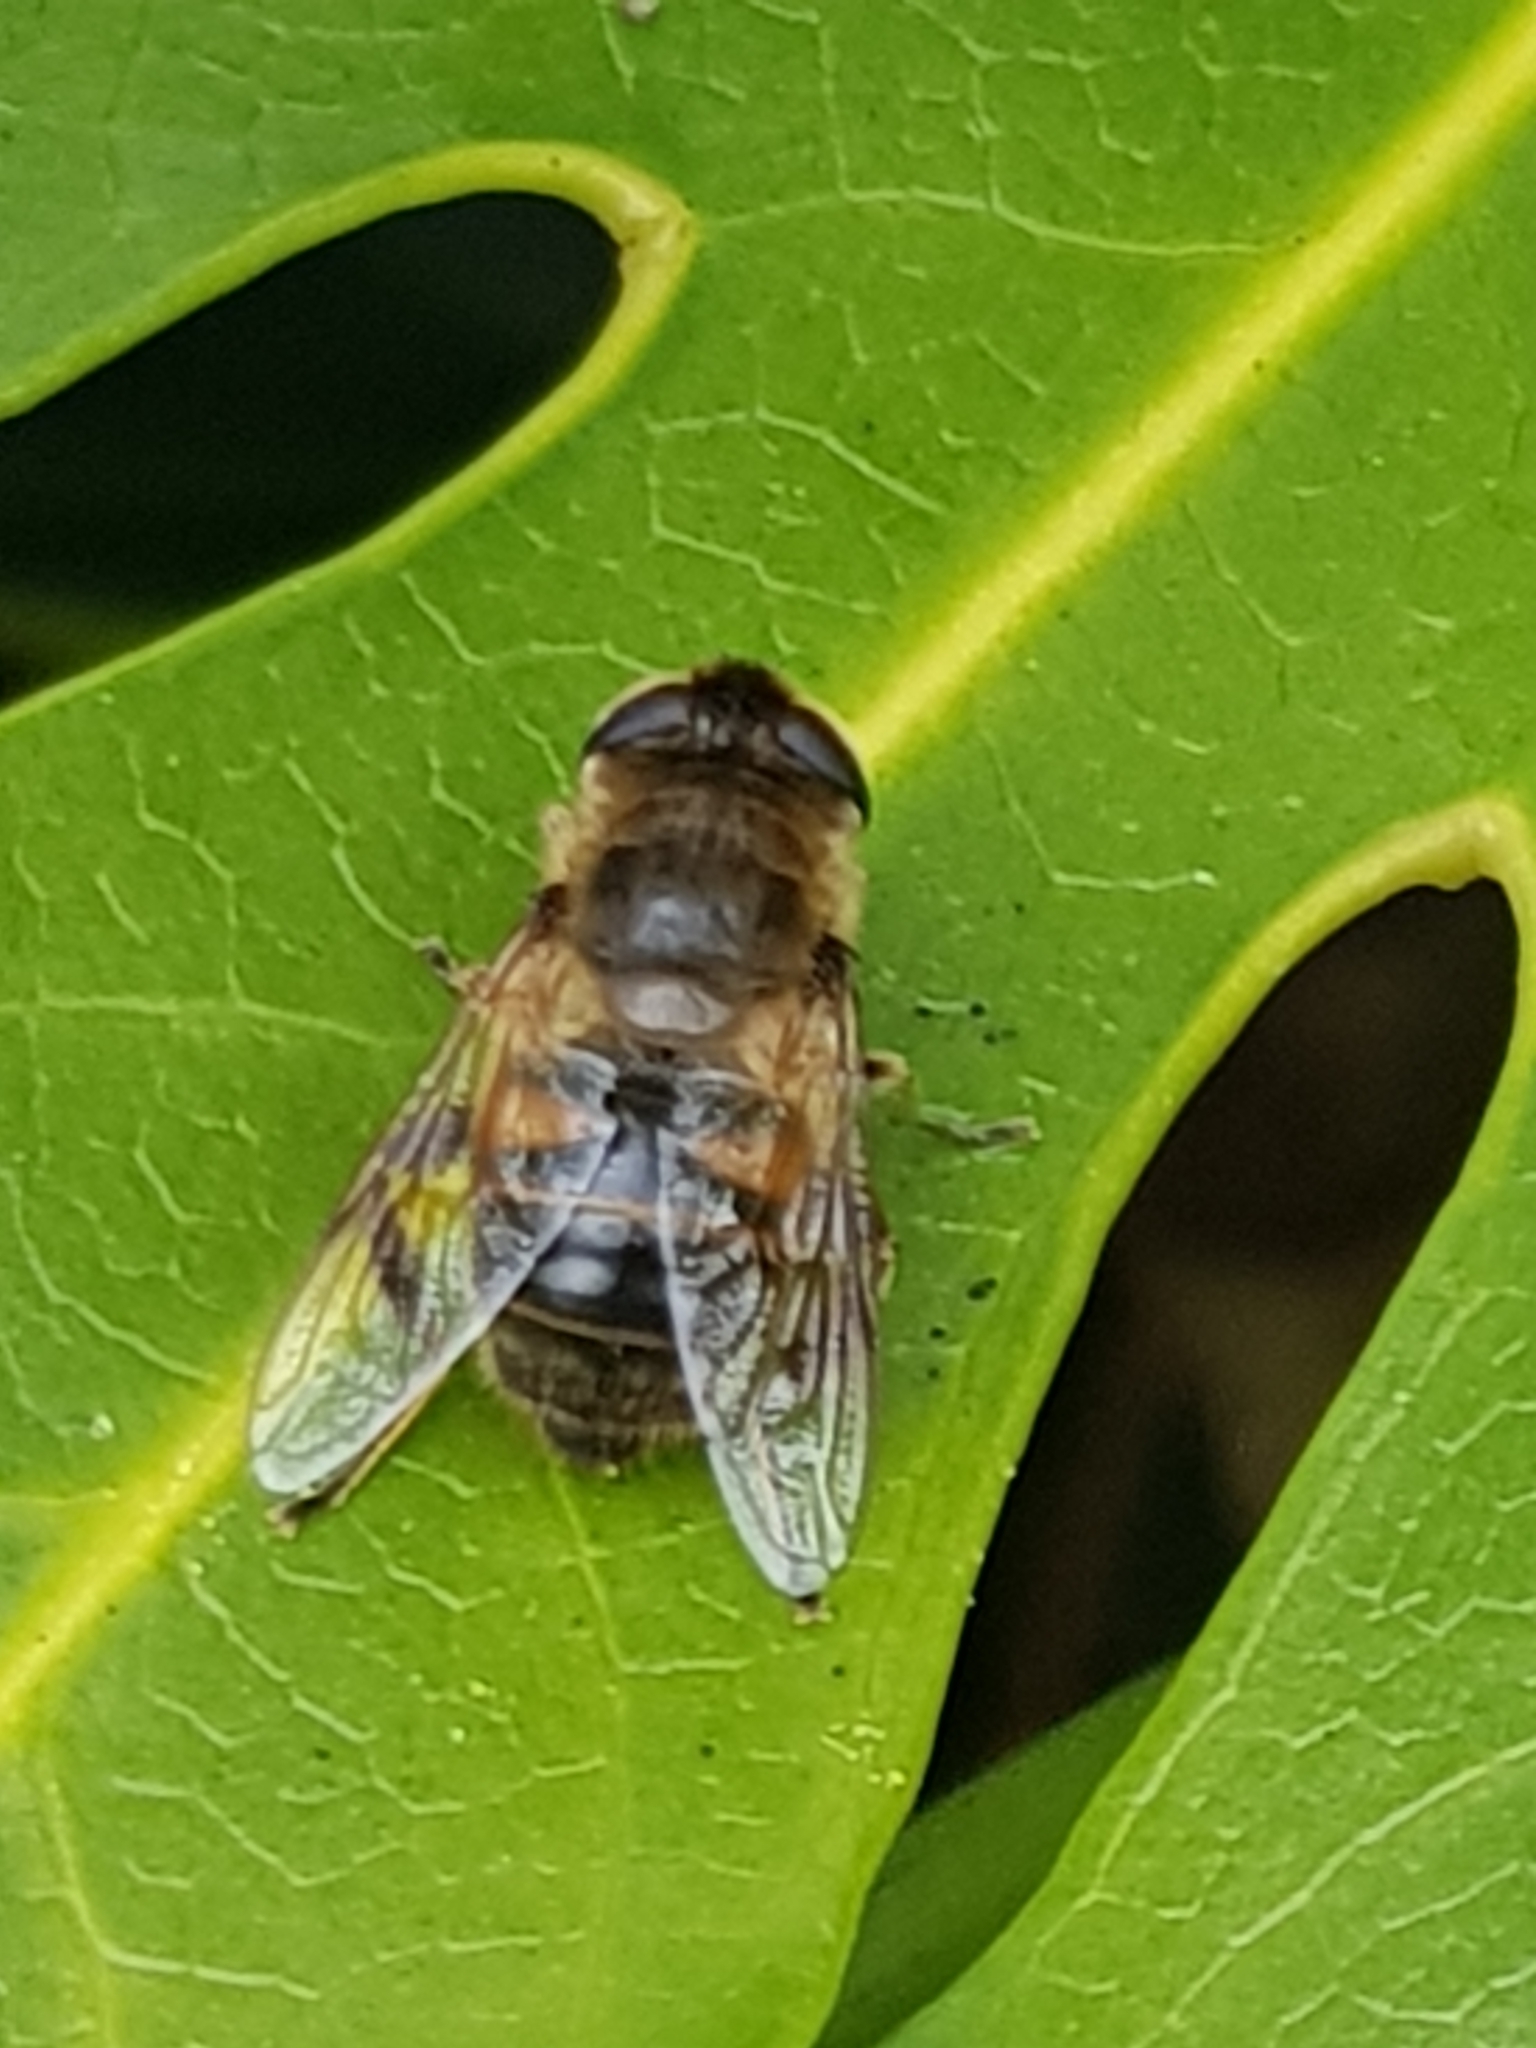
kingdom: Animalia
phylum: Arthropoda
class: Insecta
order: Diptera
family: Syrphidae
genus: Eristalis
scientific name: Eristalis tenax
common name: Drone fly
